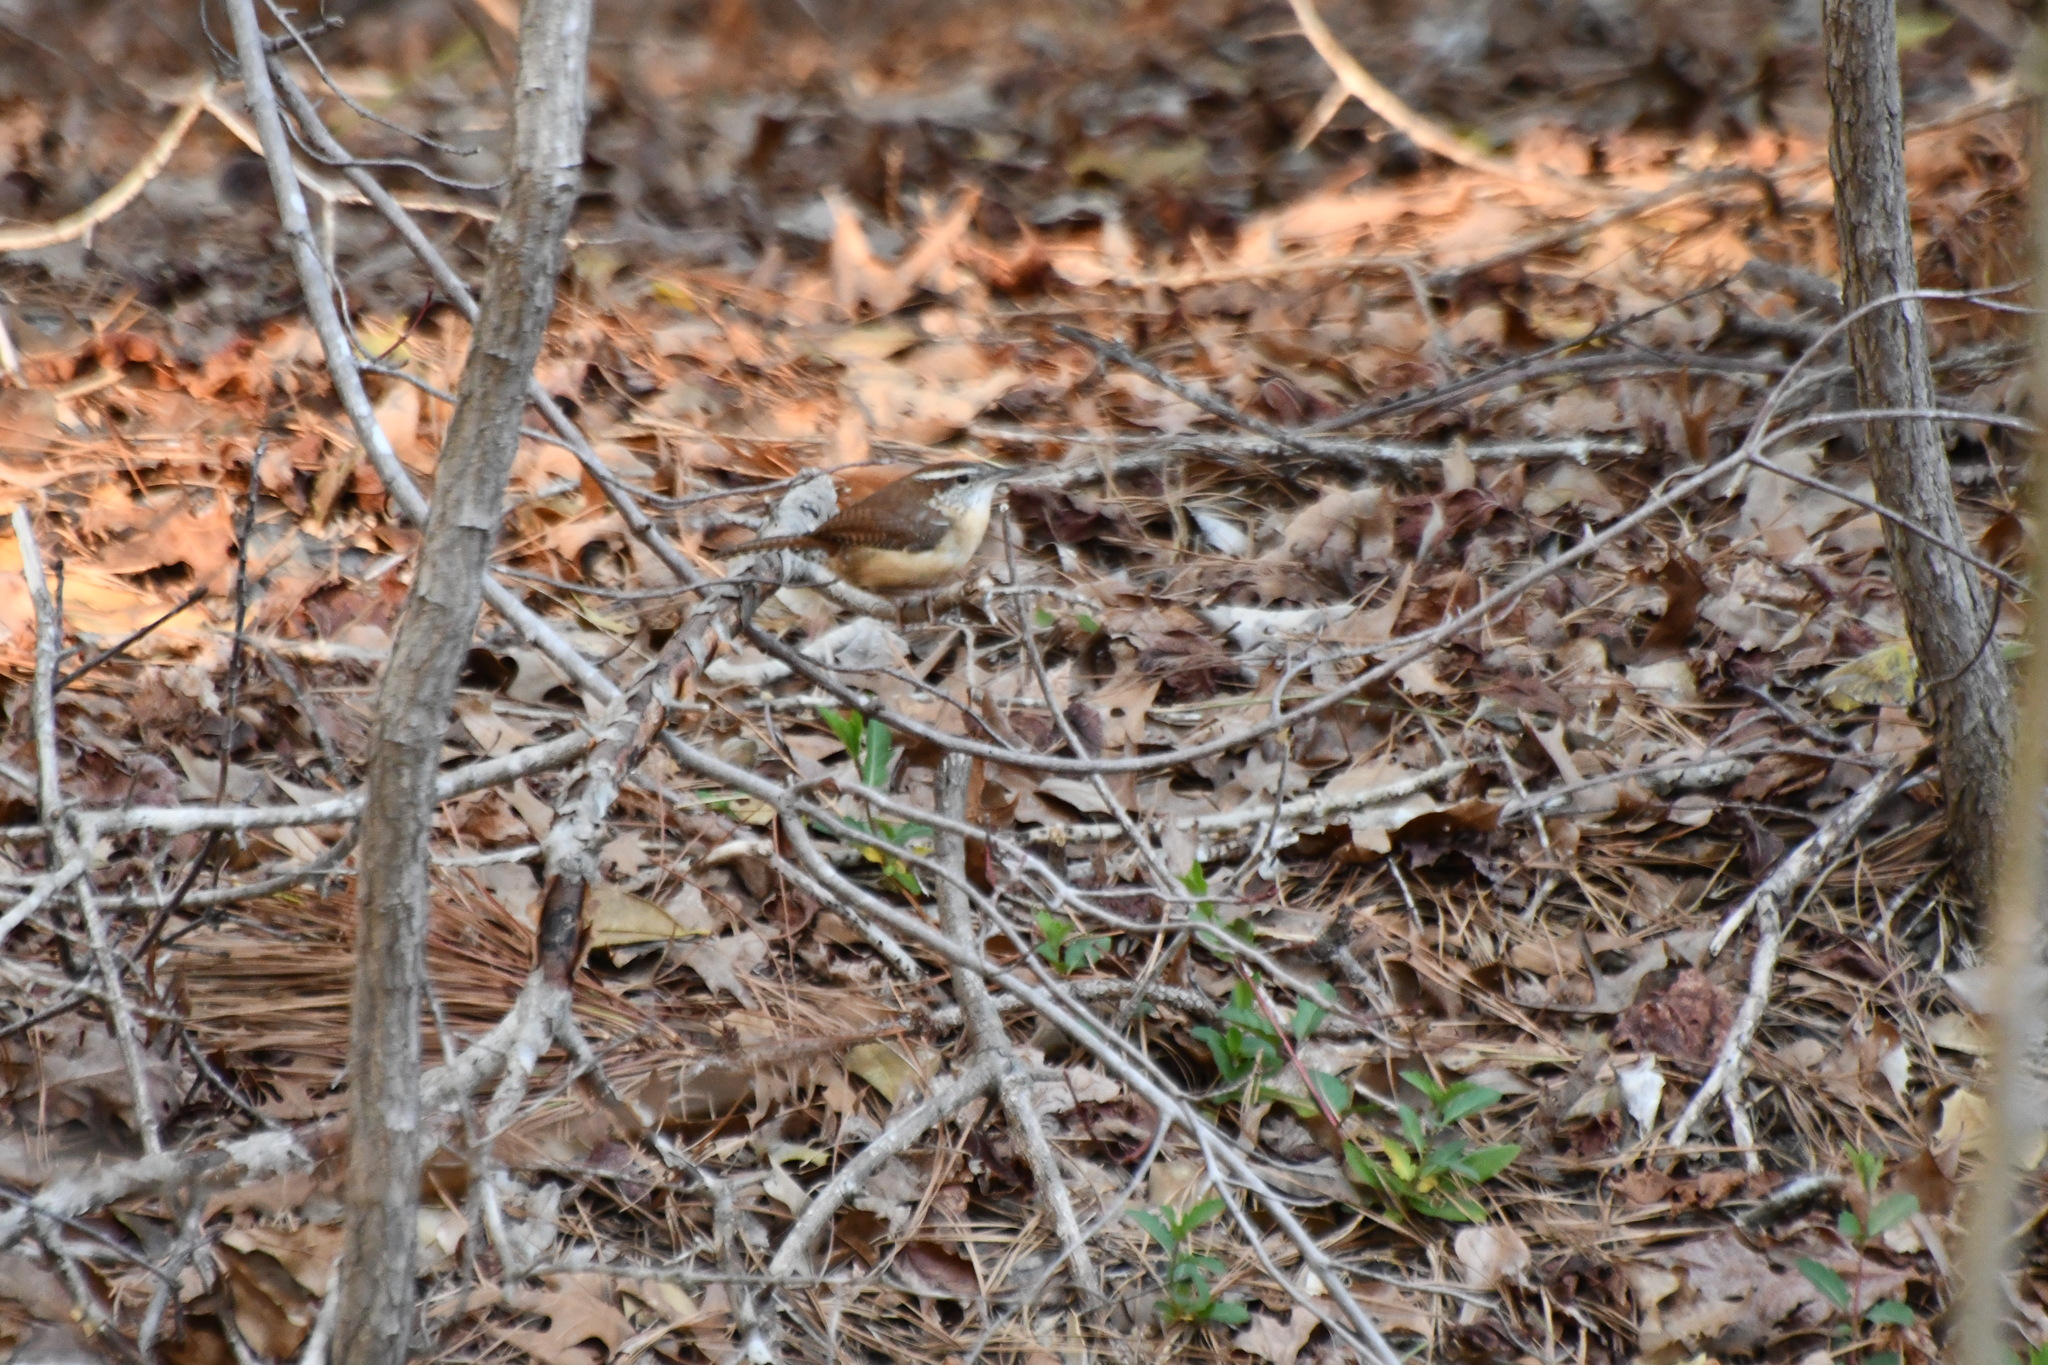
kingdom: Animalia
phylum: Chordata
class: Aves
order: Passeriformes
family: Troglodytidae
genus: Thryothorus
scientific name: Thryothorus ludovicianus
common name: Carolina wren
